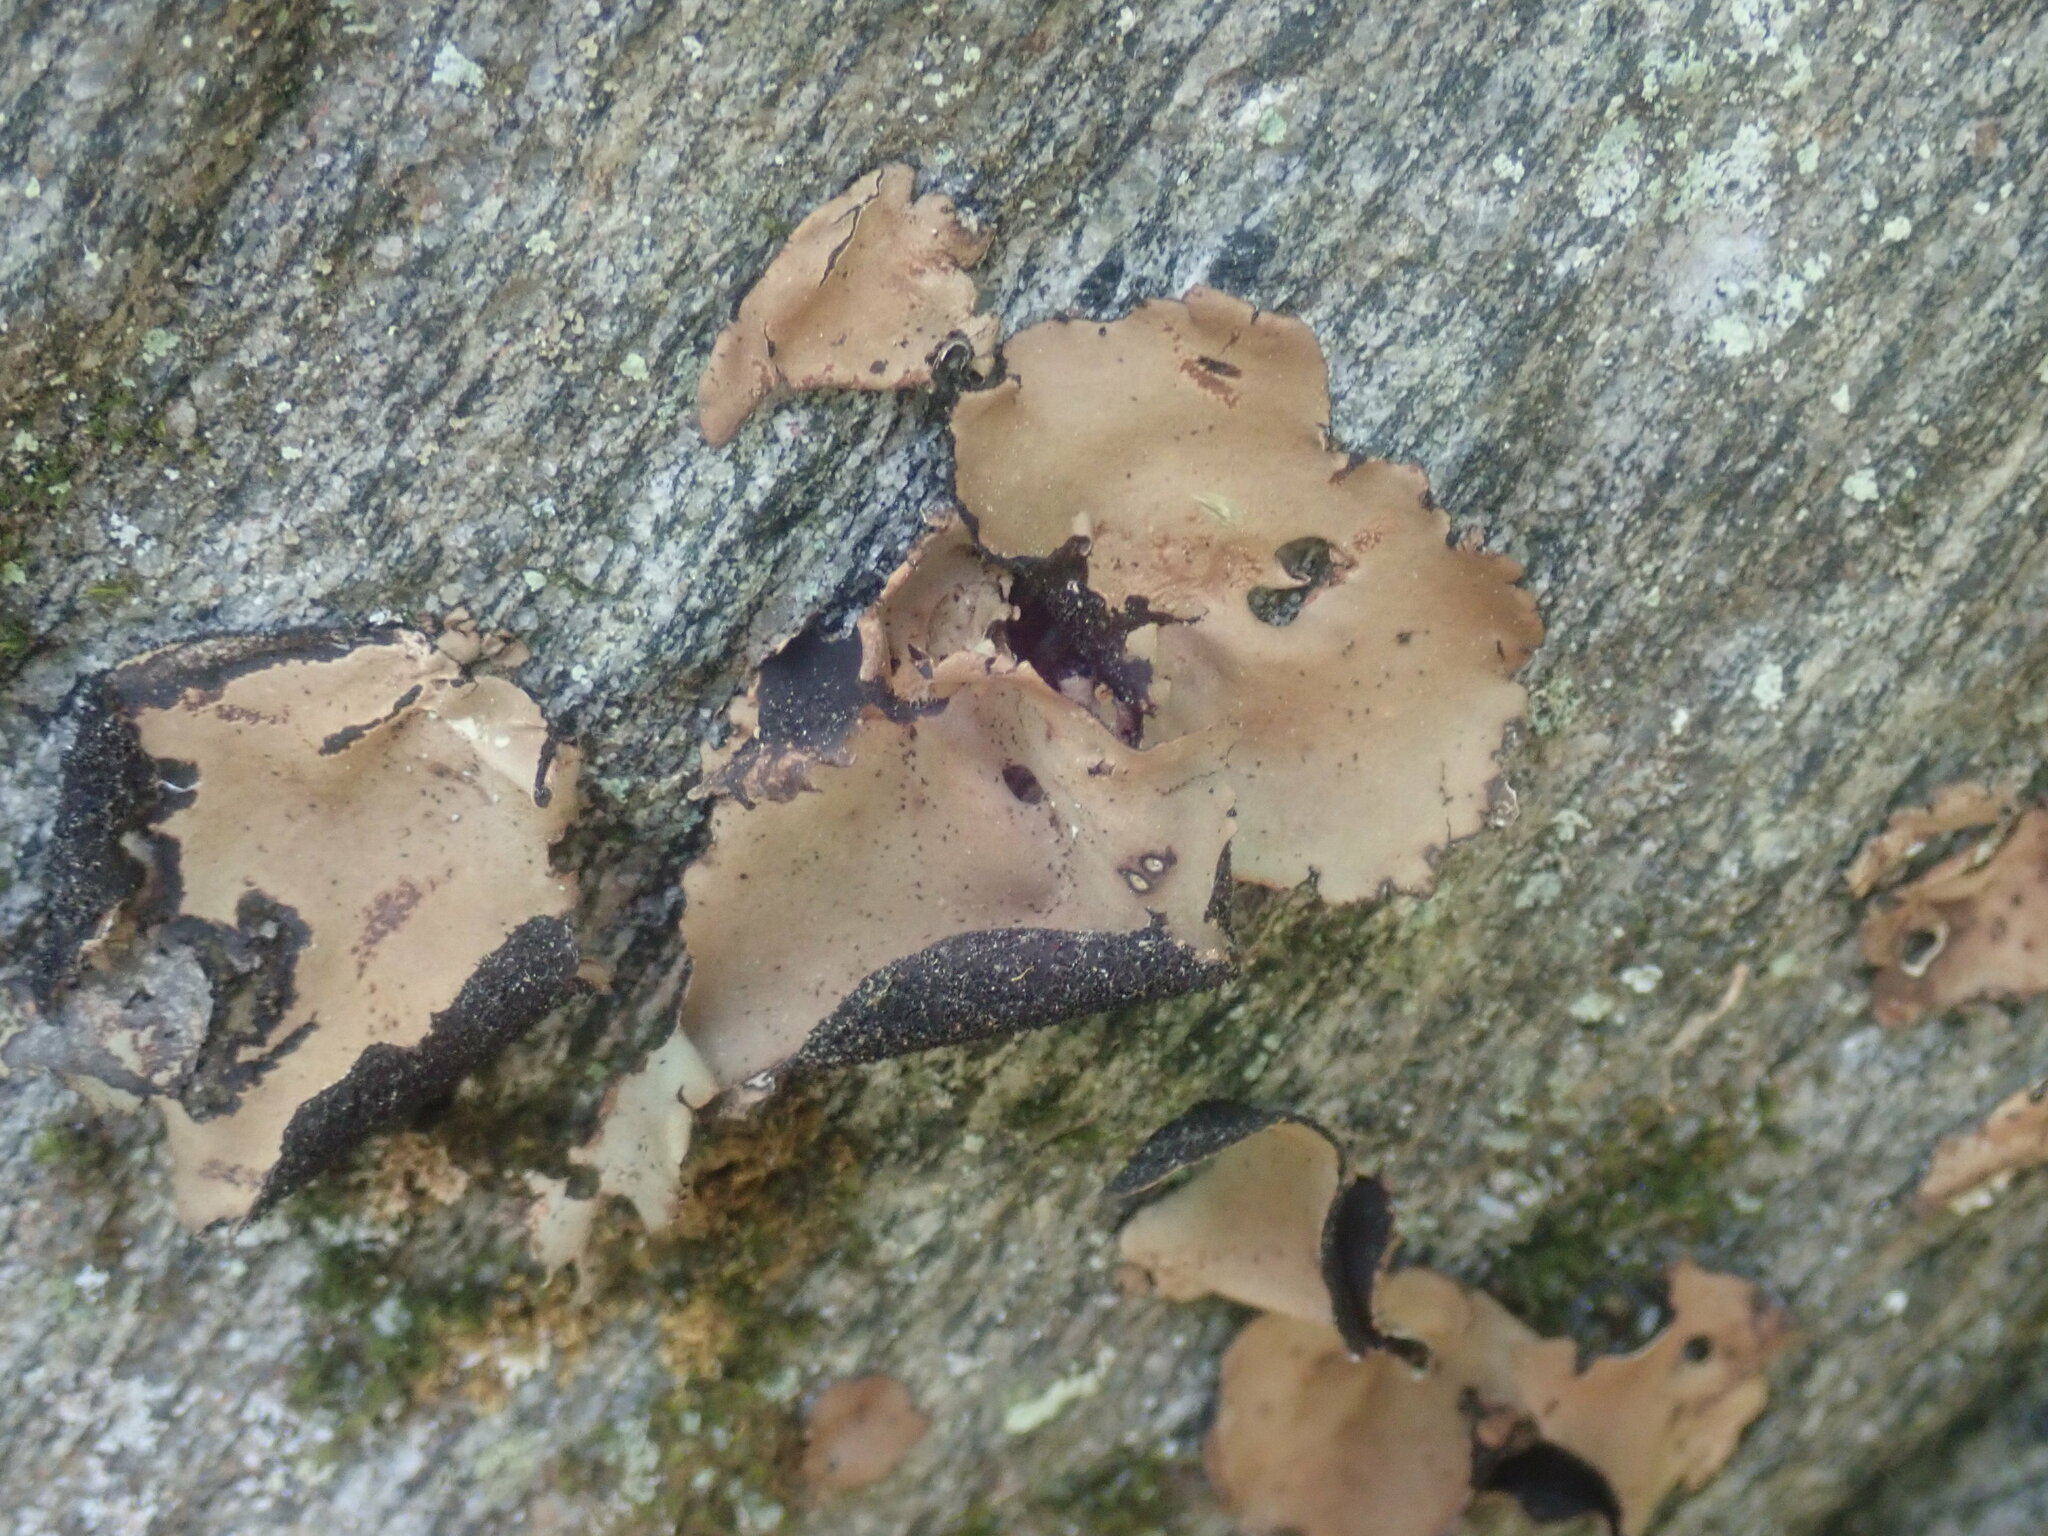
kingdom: Fungi
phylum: Ascomycota
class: Lecanoromycetes
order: Umbilicariales
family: Umbilicariaceae
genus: Umbilicaria
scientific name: Umbilicaria mammulata
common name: Smooth rock tripe
